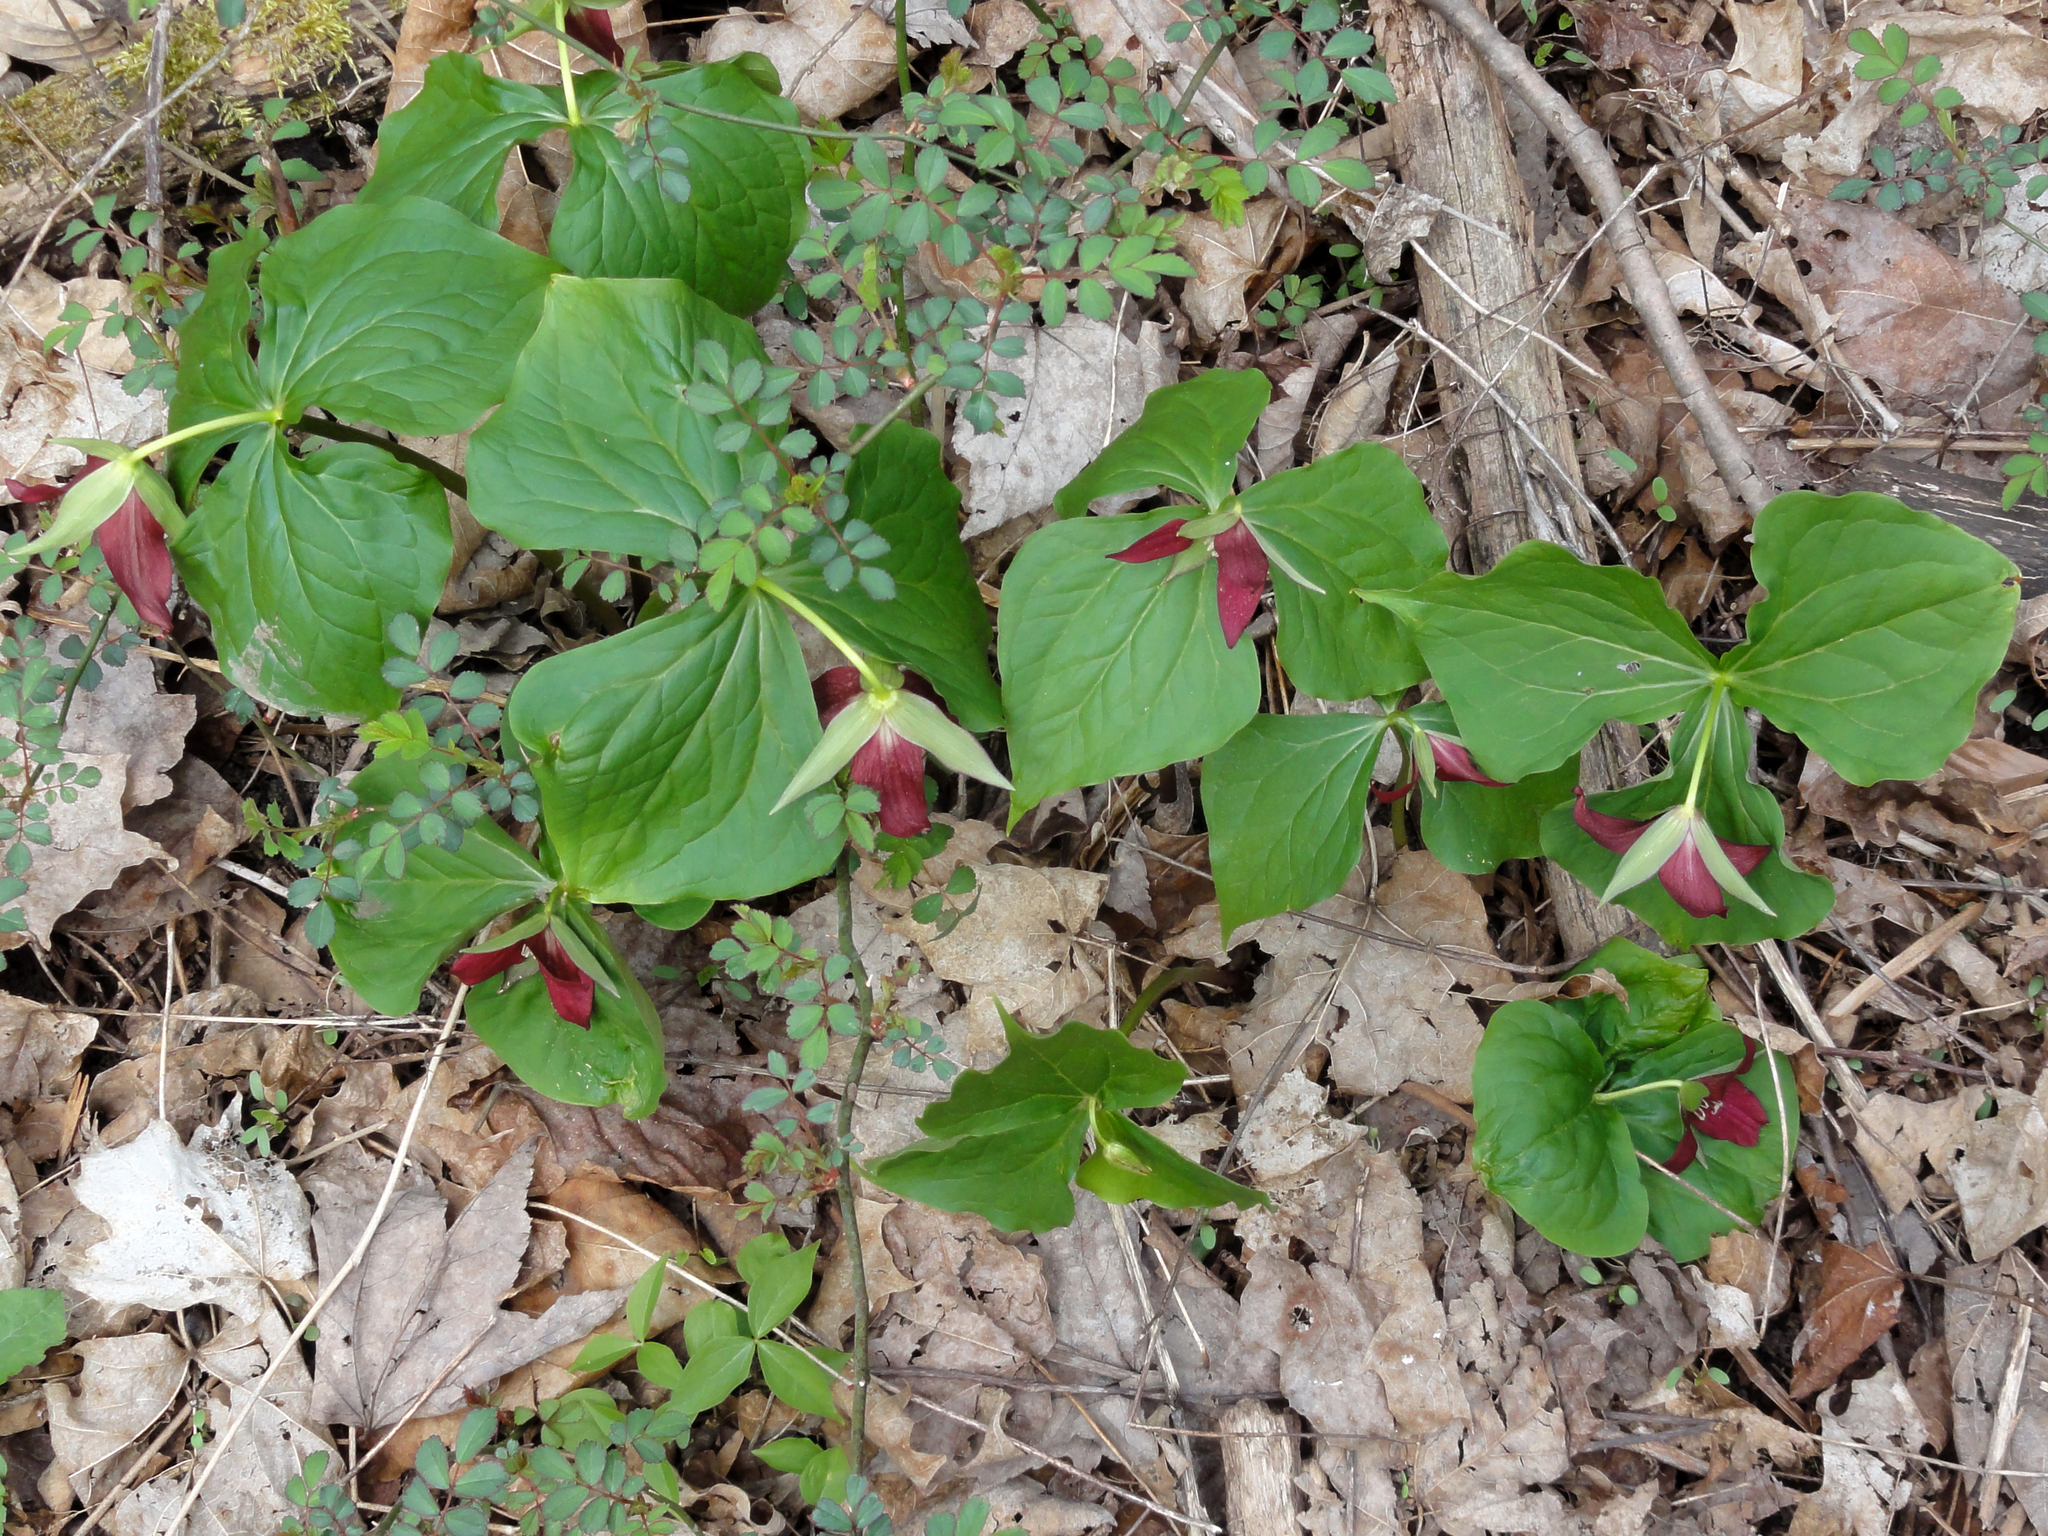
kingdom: Plantae
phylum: Tracheophyta
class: Liliopsida
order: Liliales
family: Melanthiaceae
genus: Trillium
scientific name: Trillium erectum
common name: Purple trillium
